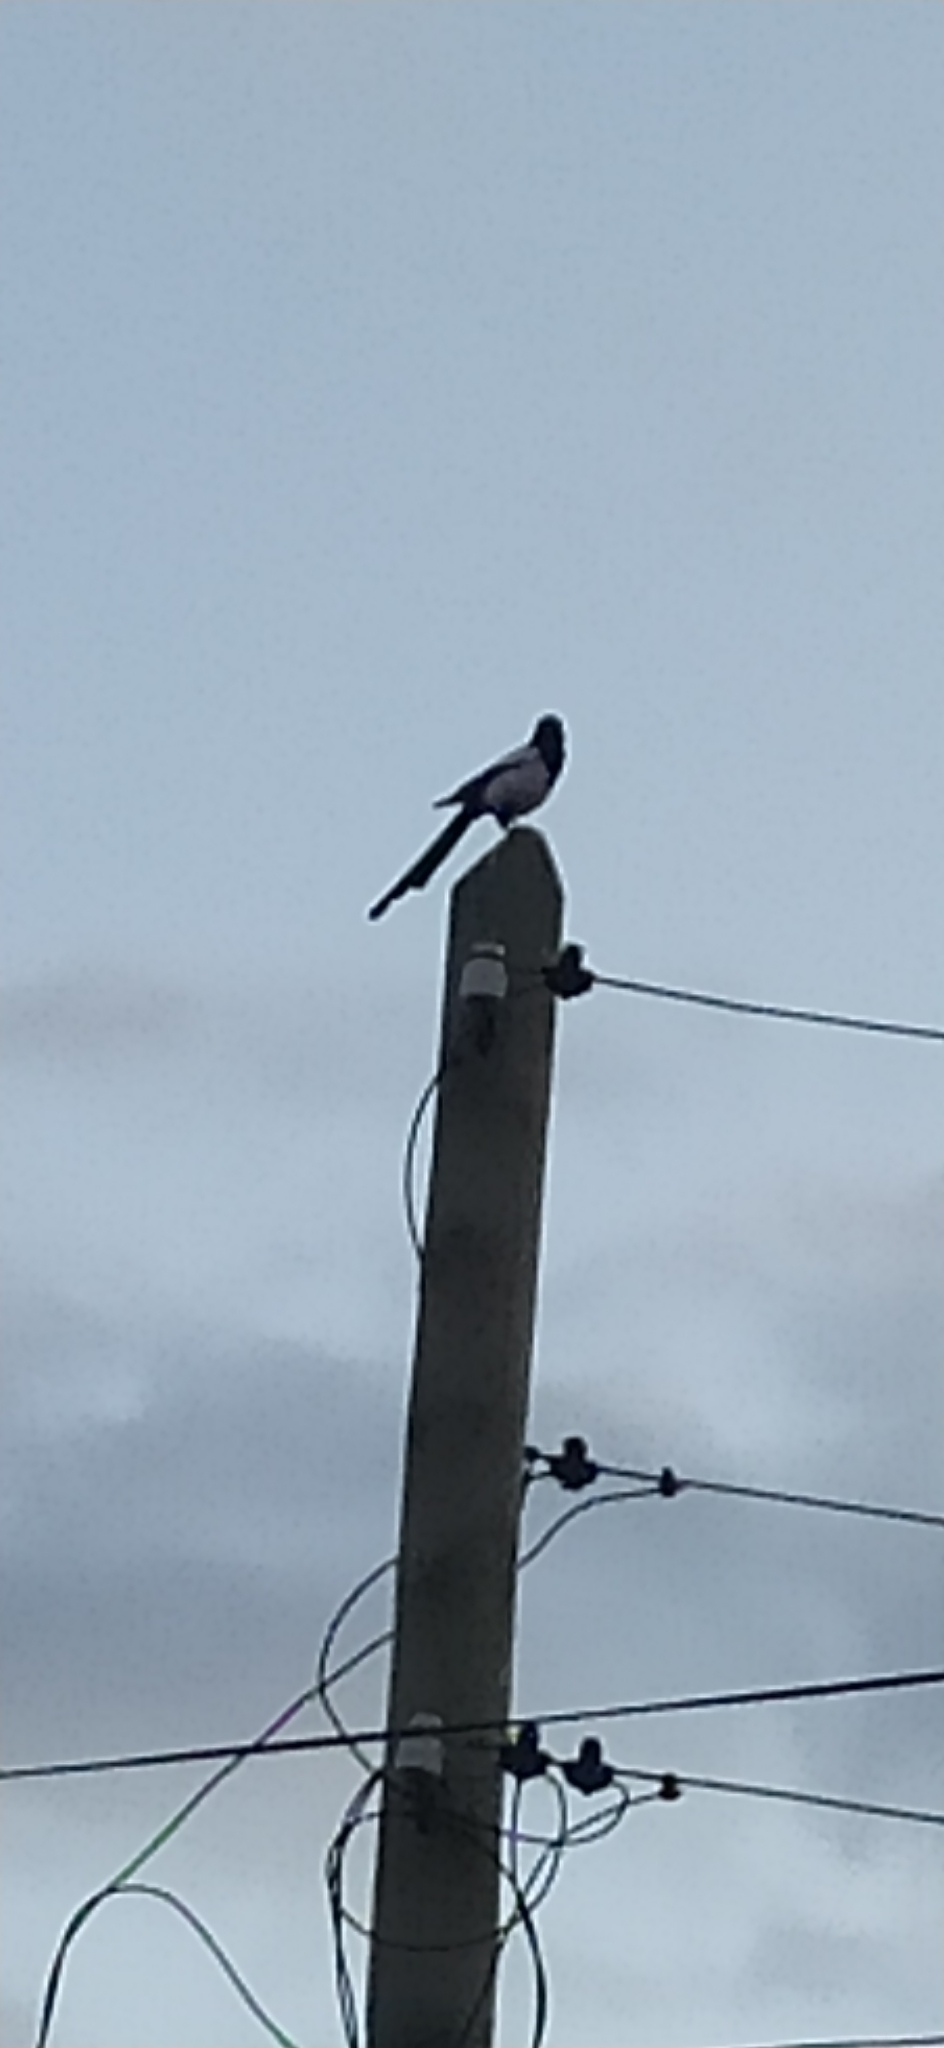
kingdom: Animalia
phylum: Chordata
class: Aves
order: Passeriformes
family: Corvidae
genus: Pica
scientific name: Pica pica
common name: Eurasian magpie
